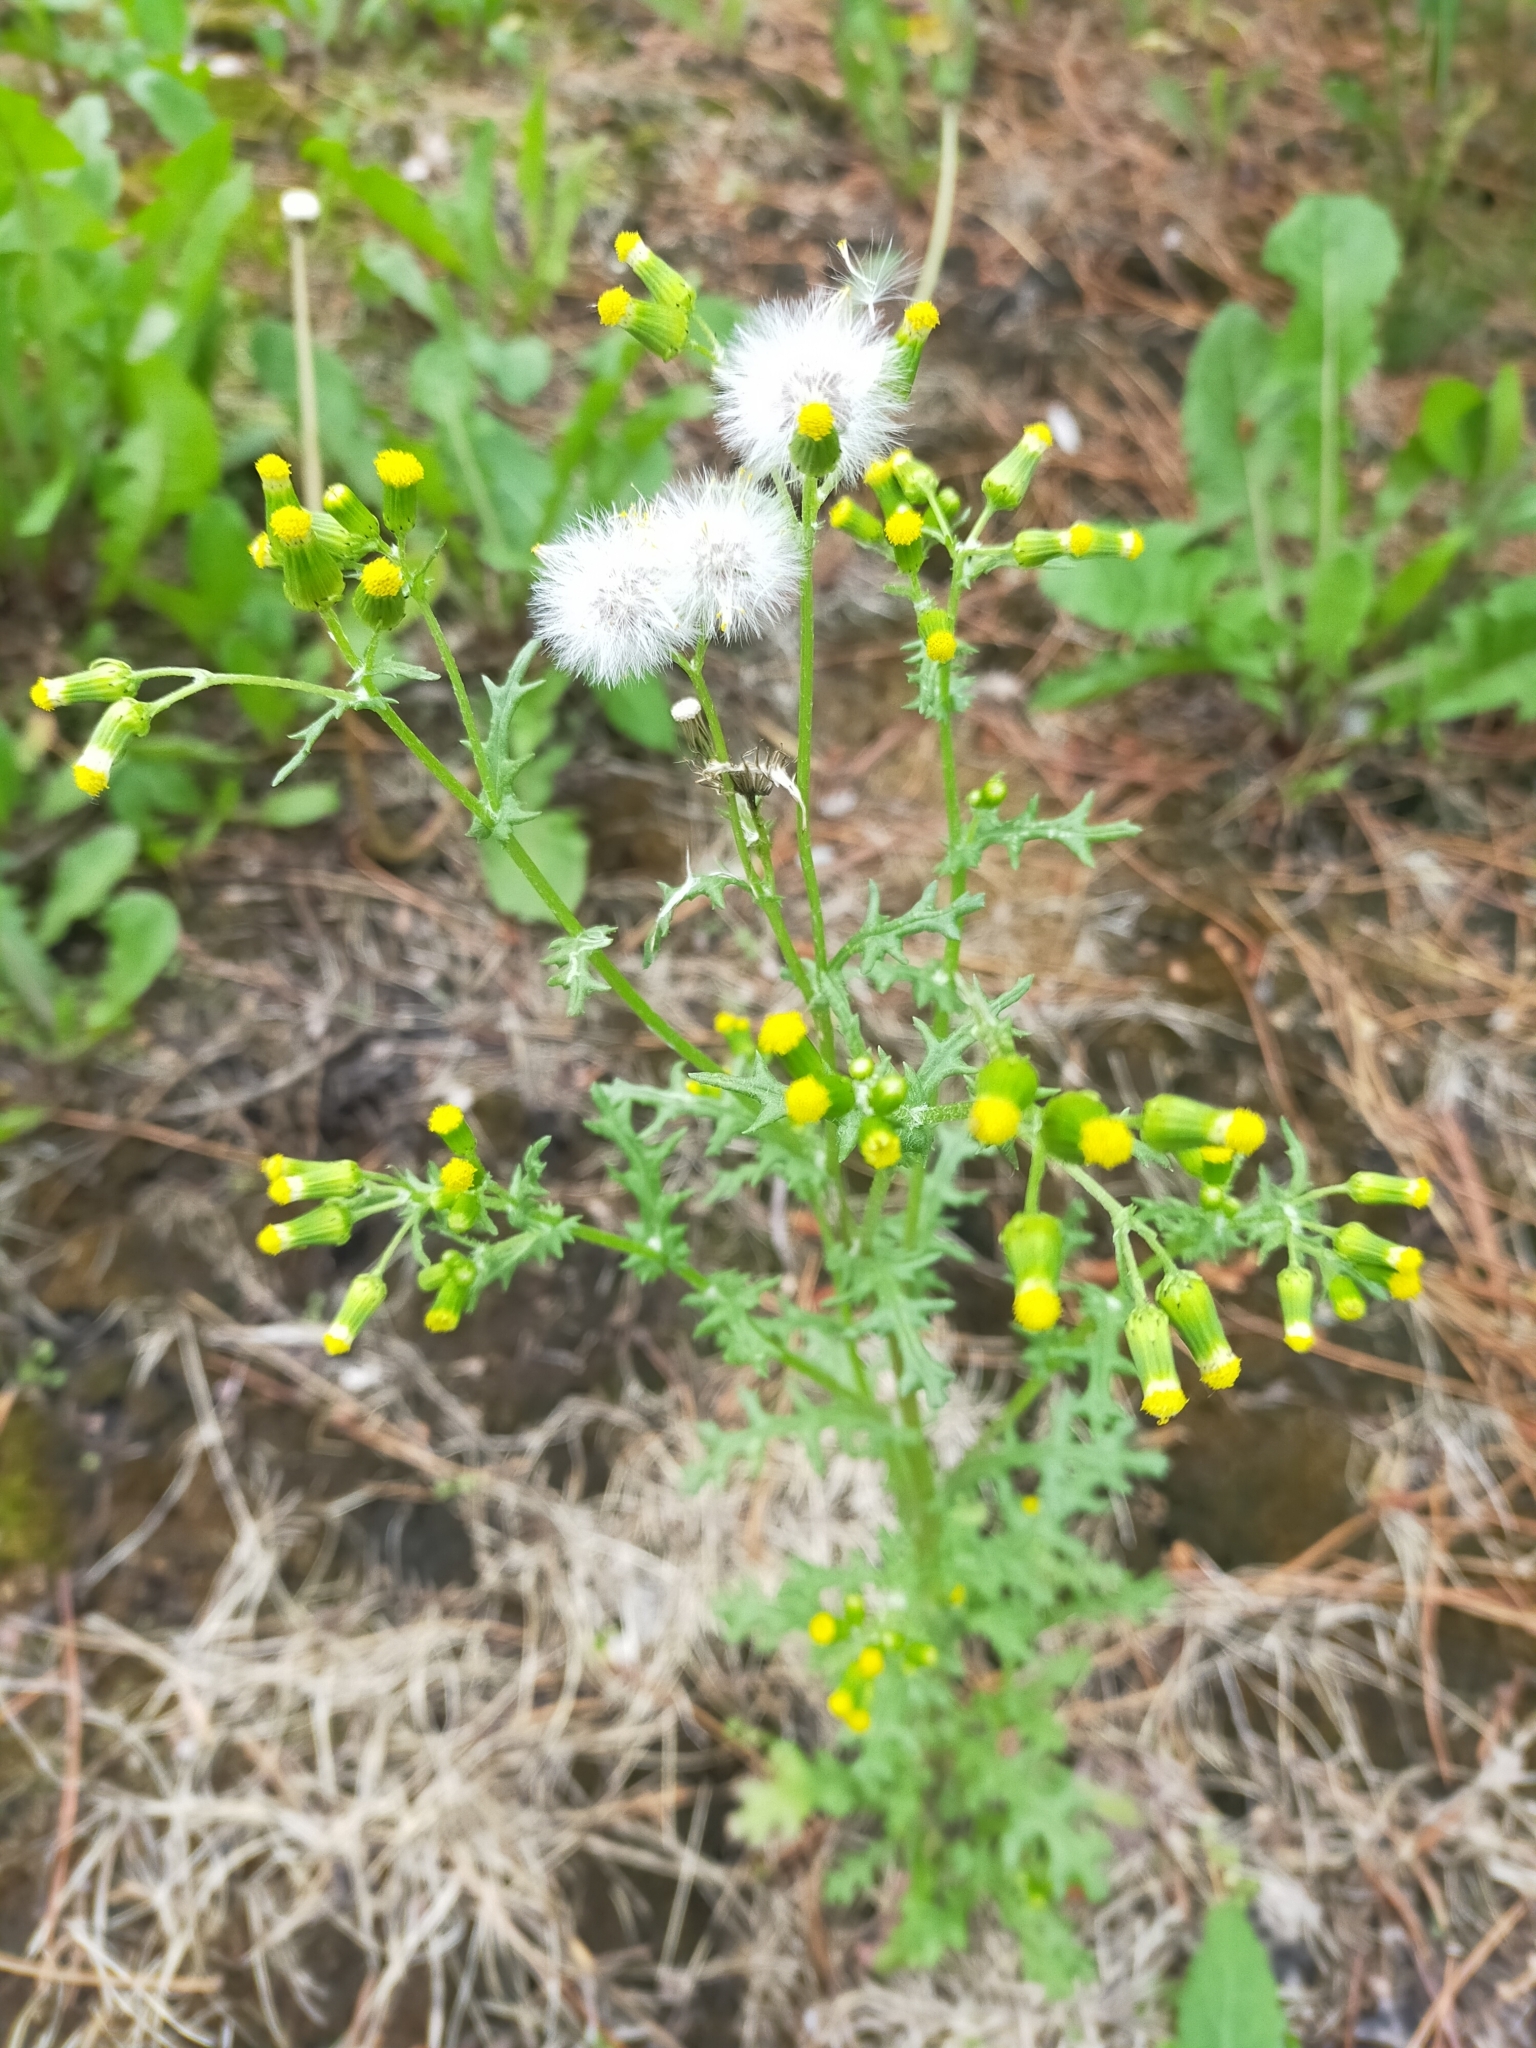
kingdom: Plantae
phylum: Tracheophyta
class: Magnoliopsida
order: Asterales
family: Asteraceae
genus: Senecio
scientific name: Senecio vulgaris
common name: Old-man-in-the-spring
